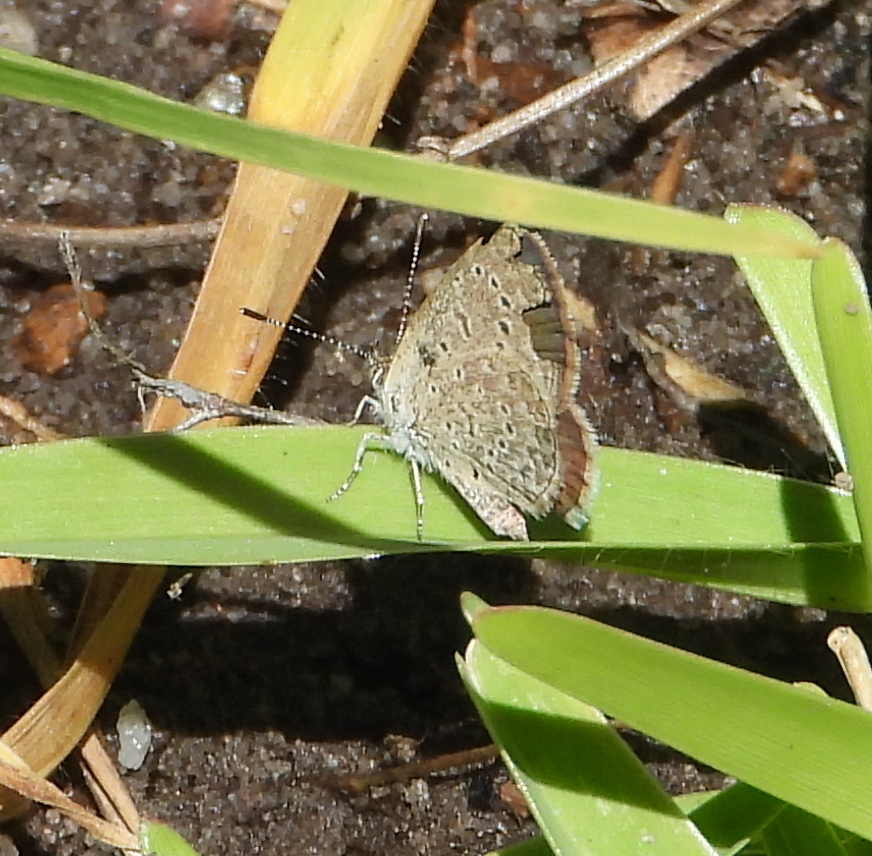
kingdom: Animalia
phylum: Arthropoda
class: Insecta
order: Lepidoptera
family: Lycaenidae
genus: Zizeeria
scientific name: Zizeeria knysna
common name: African grass blue
